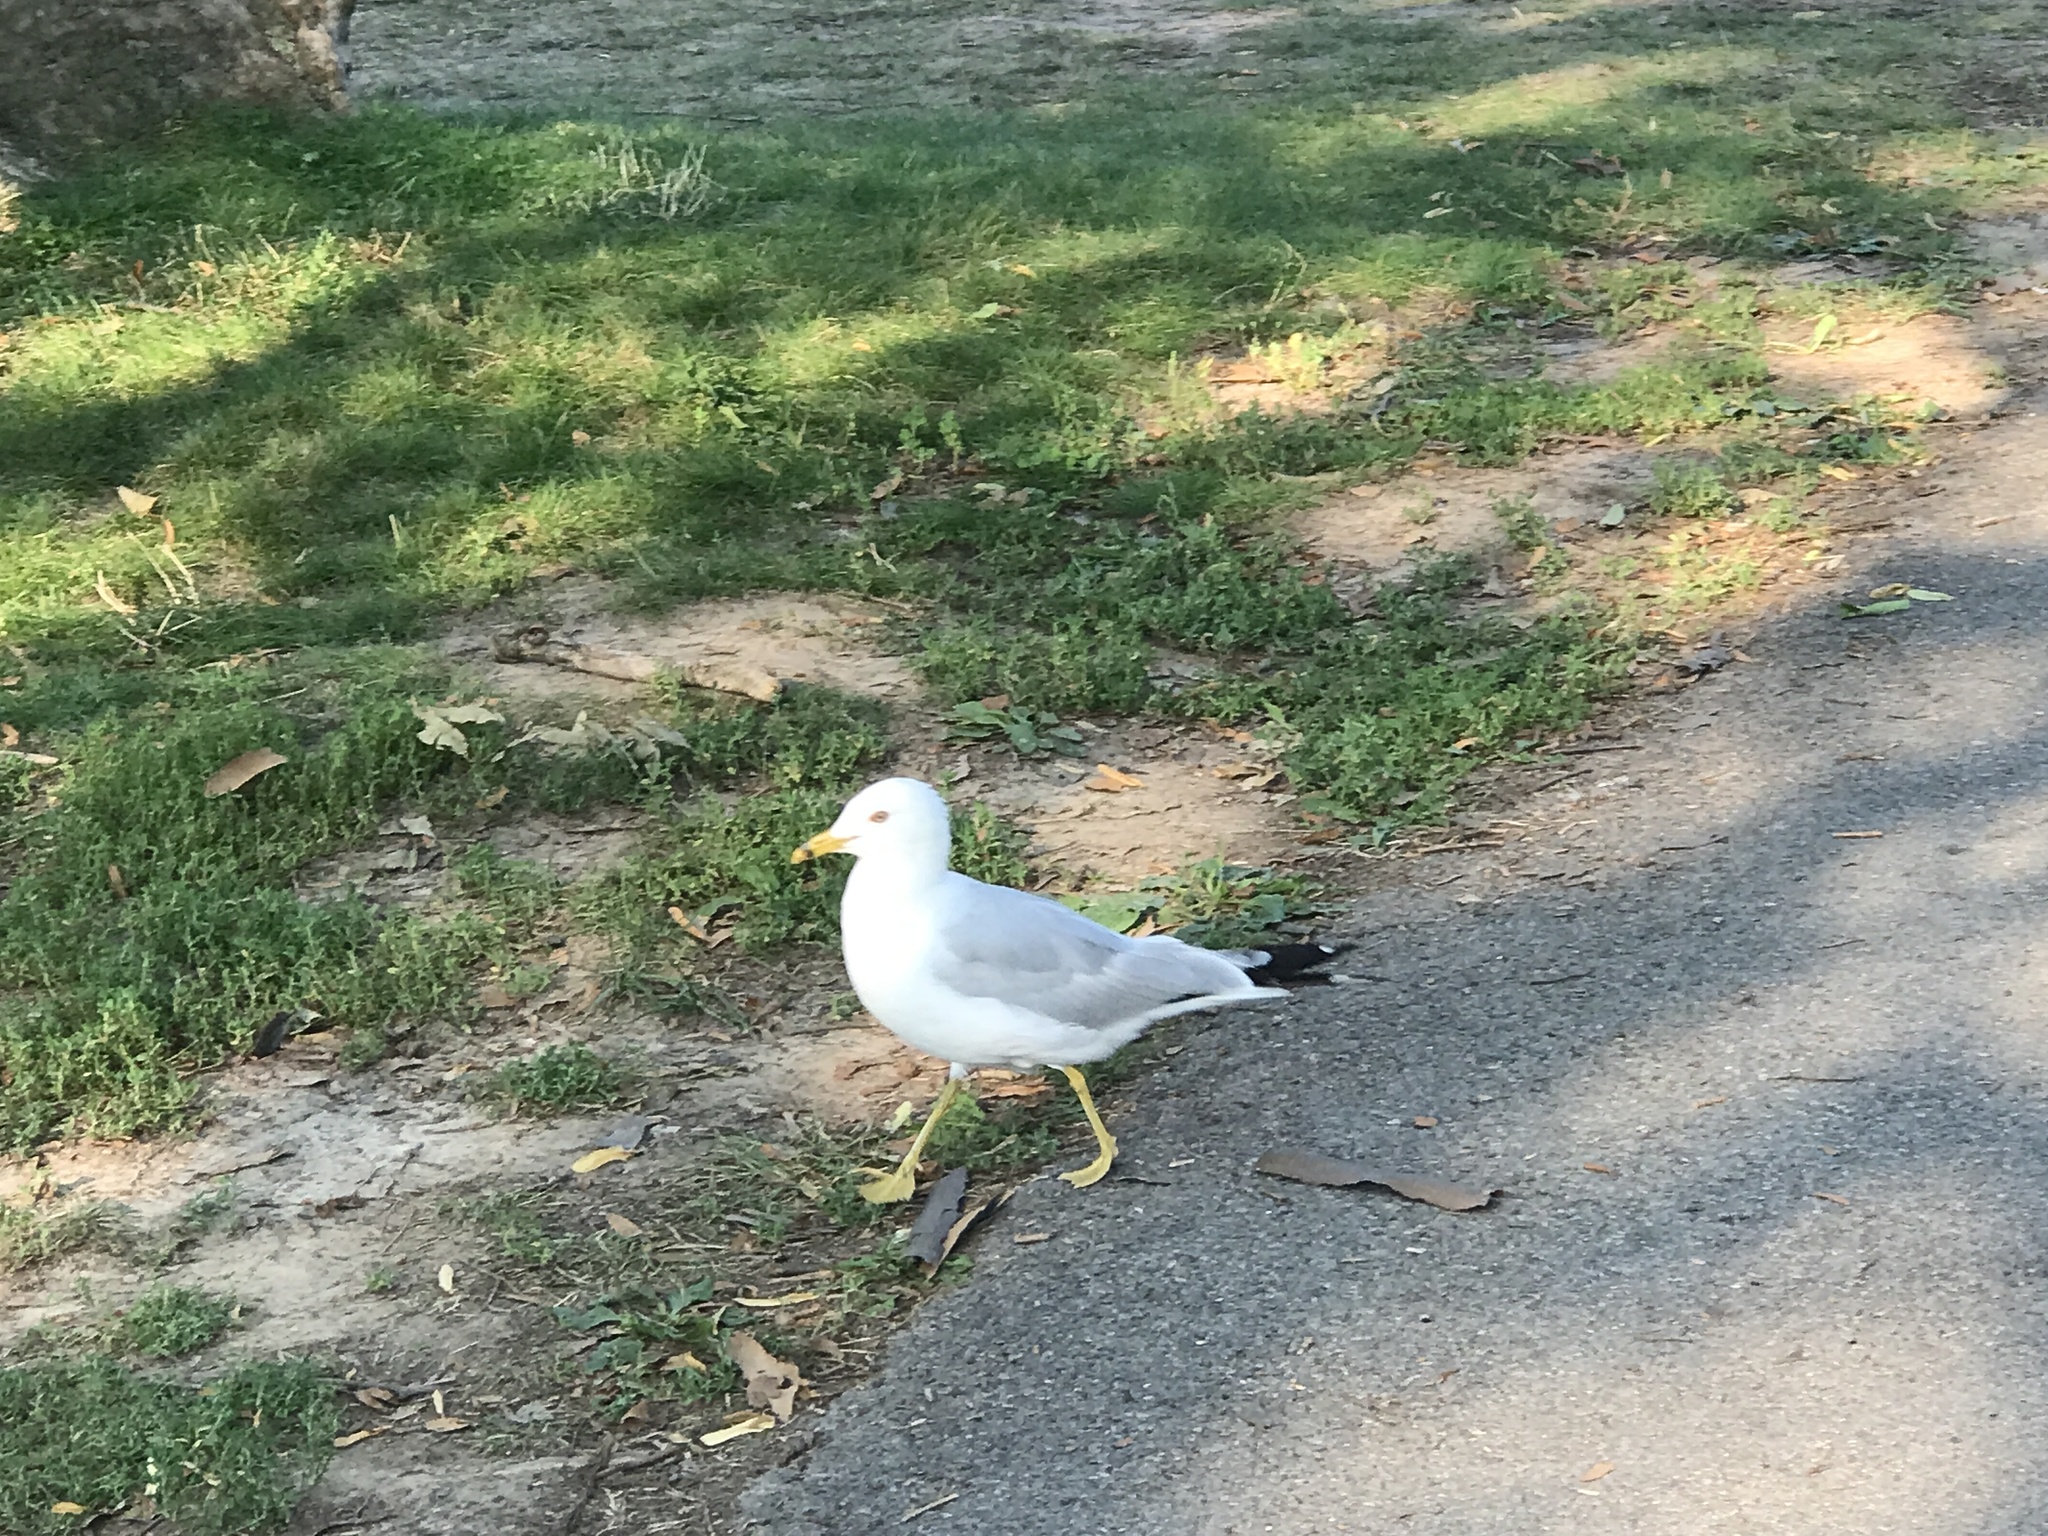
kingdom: Animalia
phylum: Chordata
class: Aves
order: Charadriiformes
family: Laridae
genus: Larus
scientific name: Larus delawarensis
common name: Ring-billed gull
